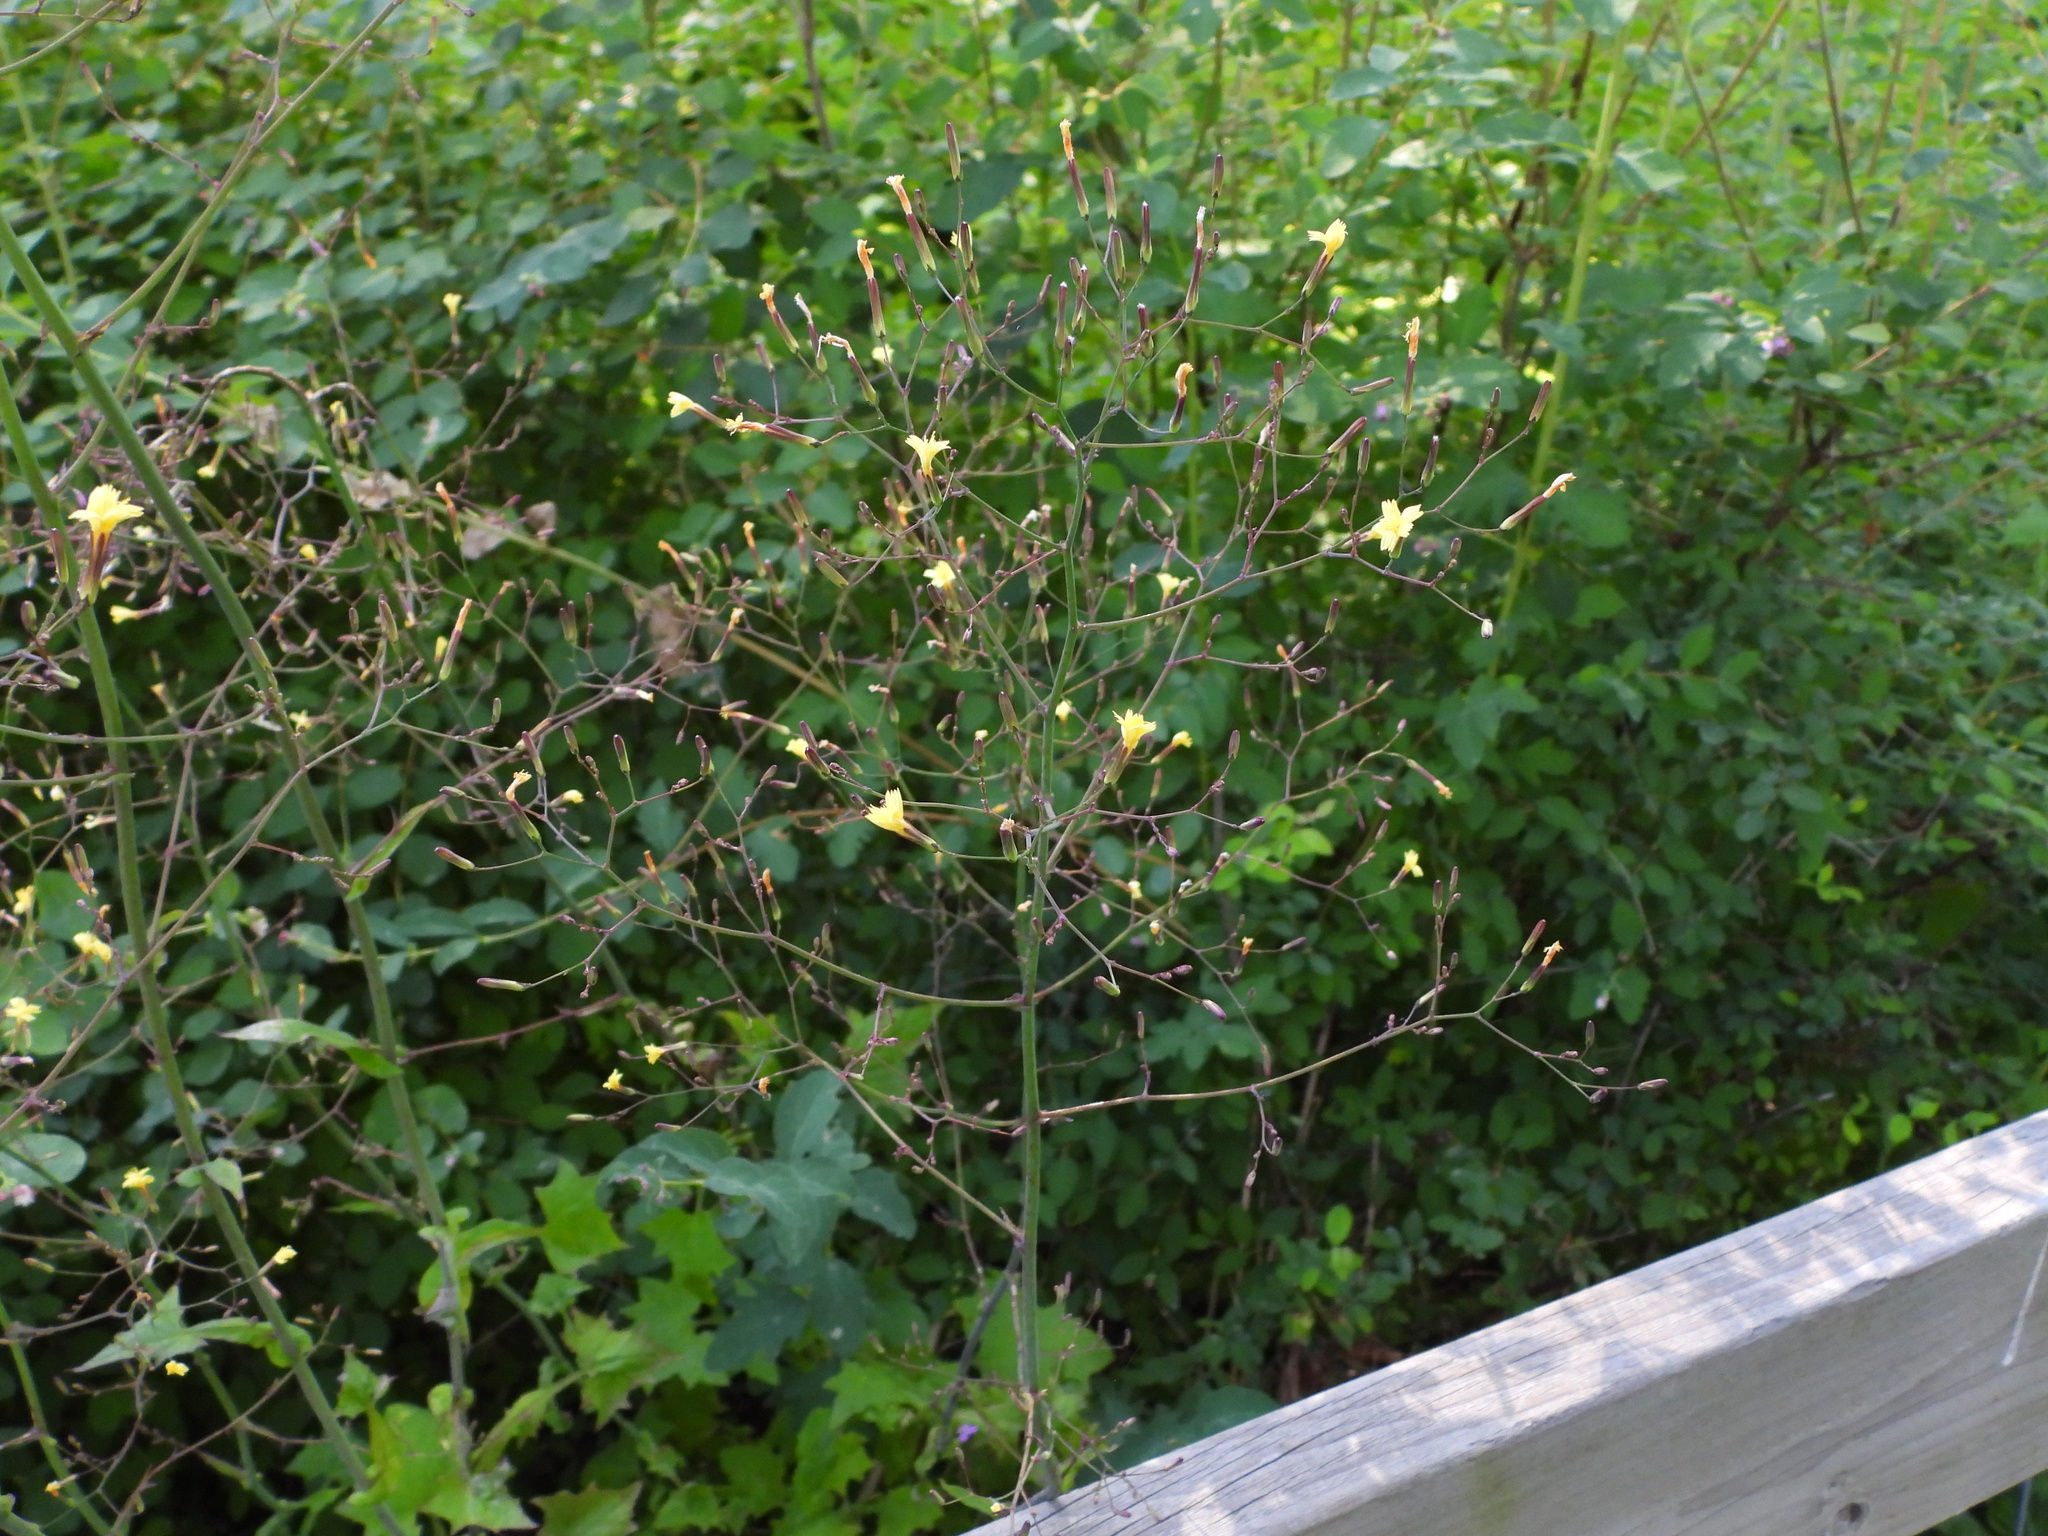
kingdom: Plantae
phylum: Tracheophyta
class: Magnoliopsida
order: Asterales
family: Asteraceae
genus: Mycelis
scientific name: Mycelis muralis
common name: Wall lettuce
